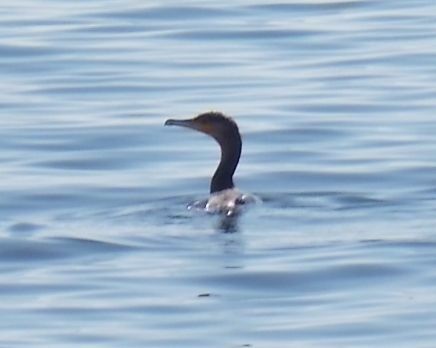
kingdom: Animalia
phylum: Chordata
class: Aves
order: Suliformes
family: Phalacrocoracidae
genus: Phalacrocorax
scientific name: Phalacrocorax carbo
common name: Great cormorant
